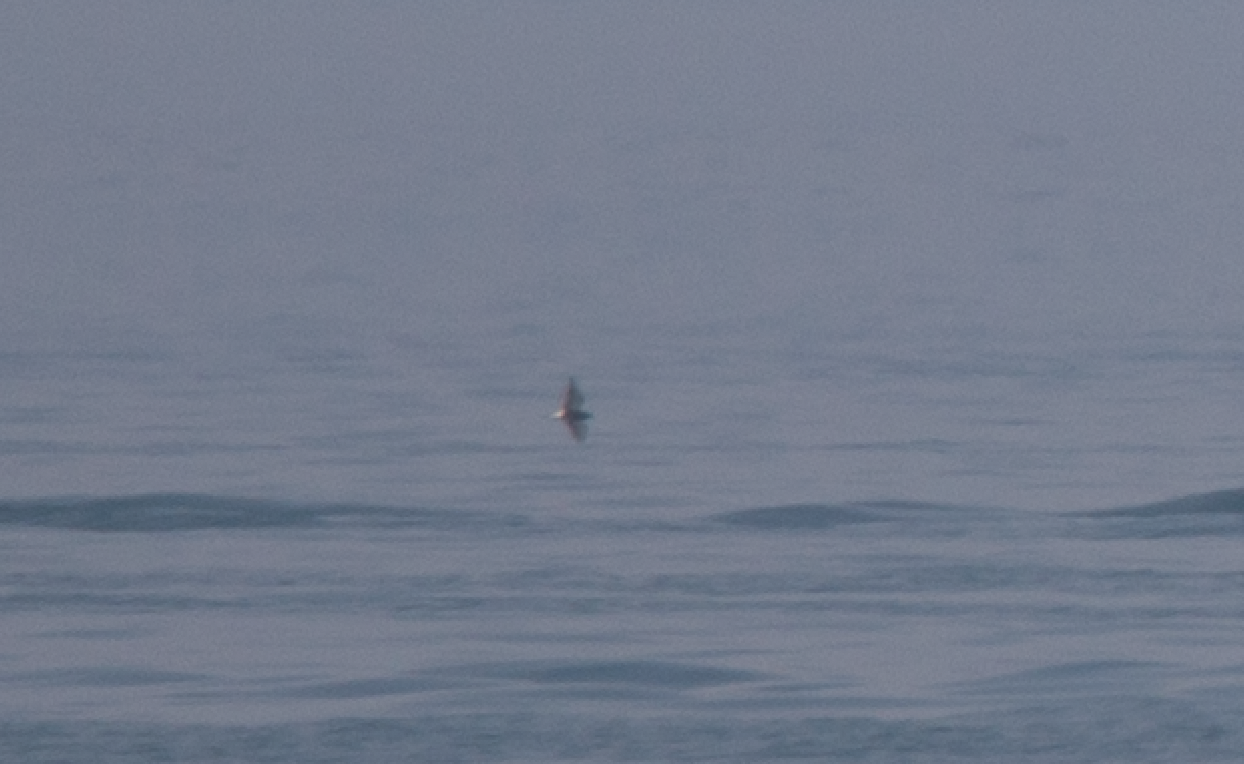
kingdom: Animalia
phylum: Chordata
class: Aves
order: Charadriiformes
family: Laridae
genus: Chlidonias
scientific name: Chlidonias niger
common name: Black tern
